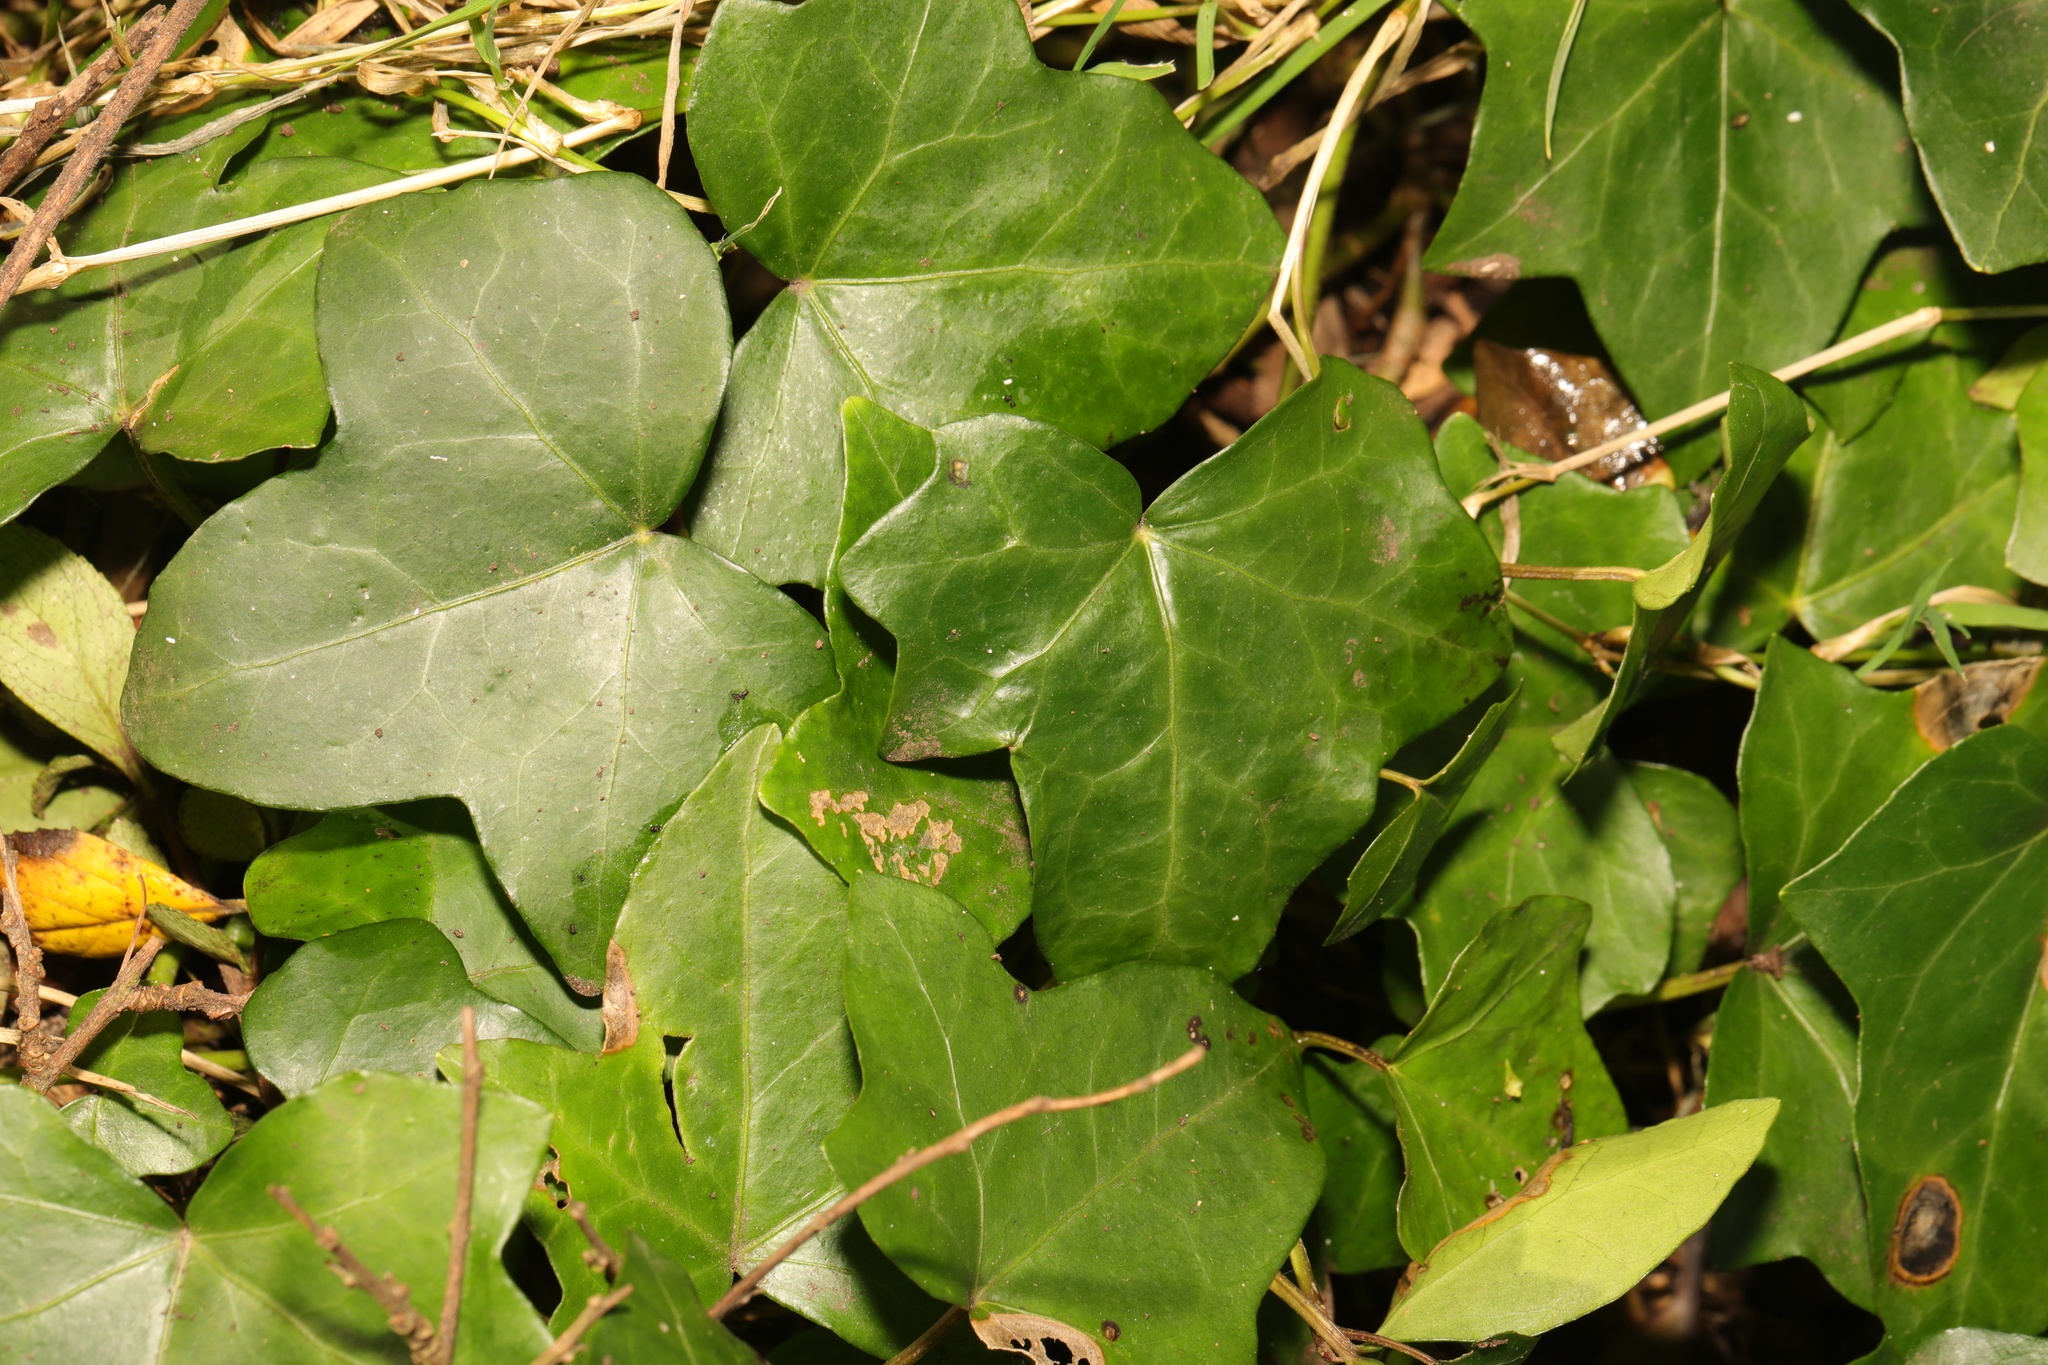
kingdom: Plantae
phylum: Tracheophyta
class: Magnoliopsida
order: Apiales
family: Araliaceae
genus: Hedera
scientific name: Hedera helix
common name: Ivy
